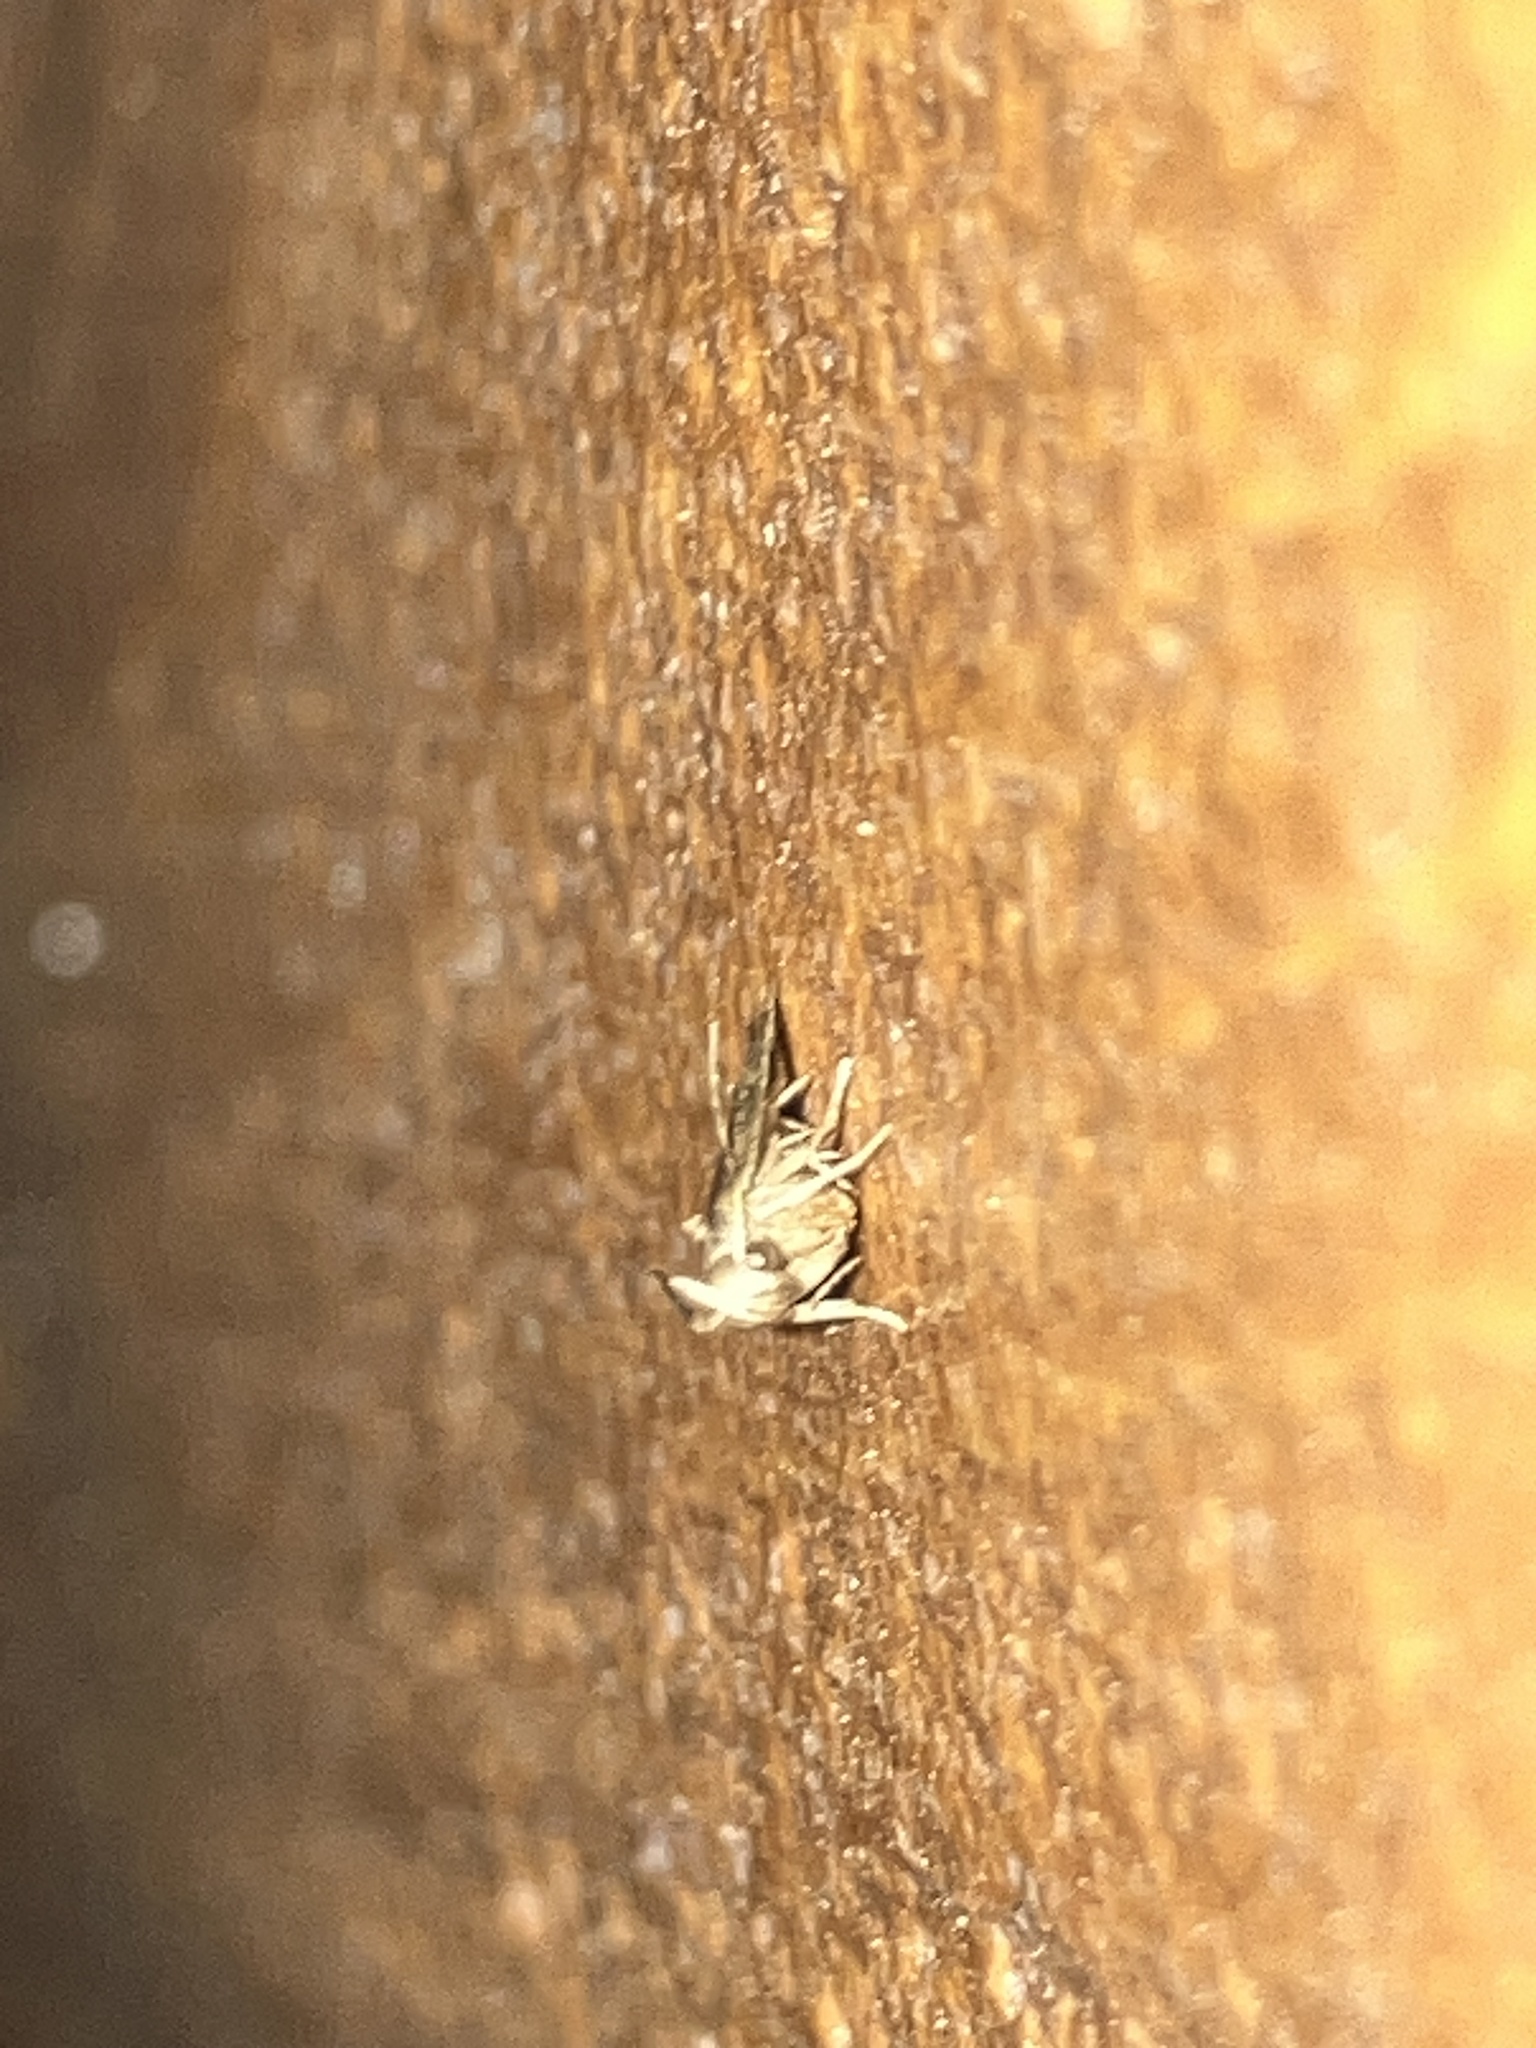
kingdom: Animalia
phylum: Arthropoda
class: Insecta
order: Lepidoptera
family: Autostichidae
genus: Glyphidocera
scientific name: Glyphidocera floridanella
